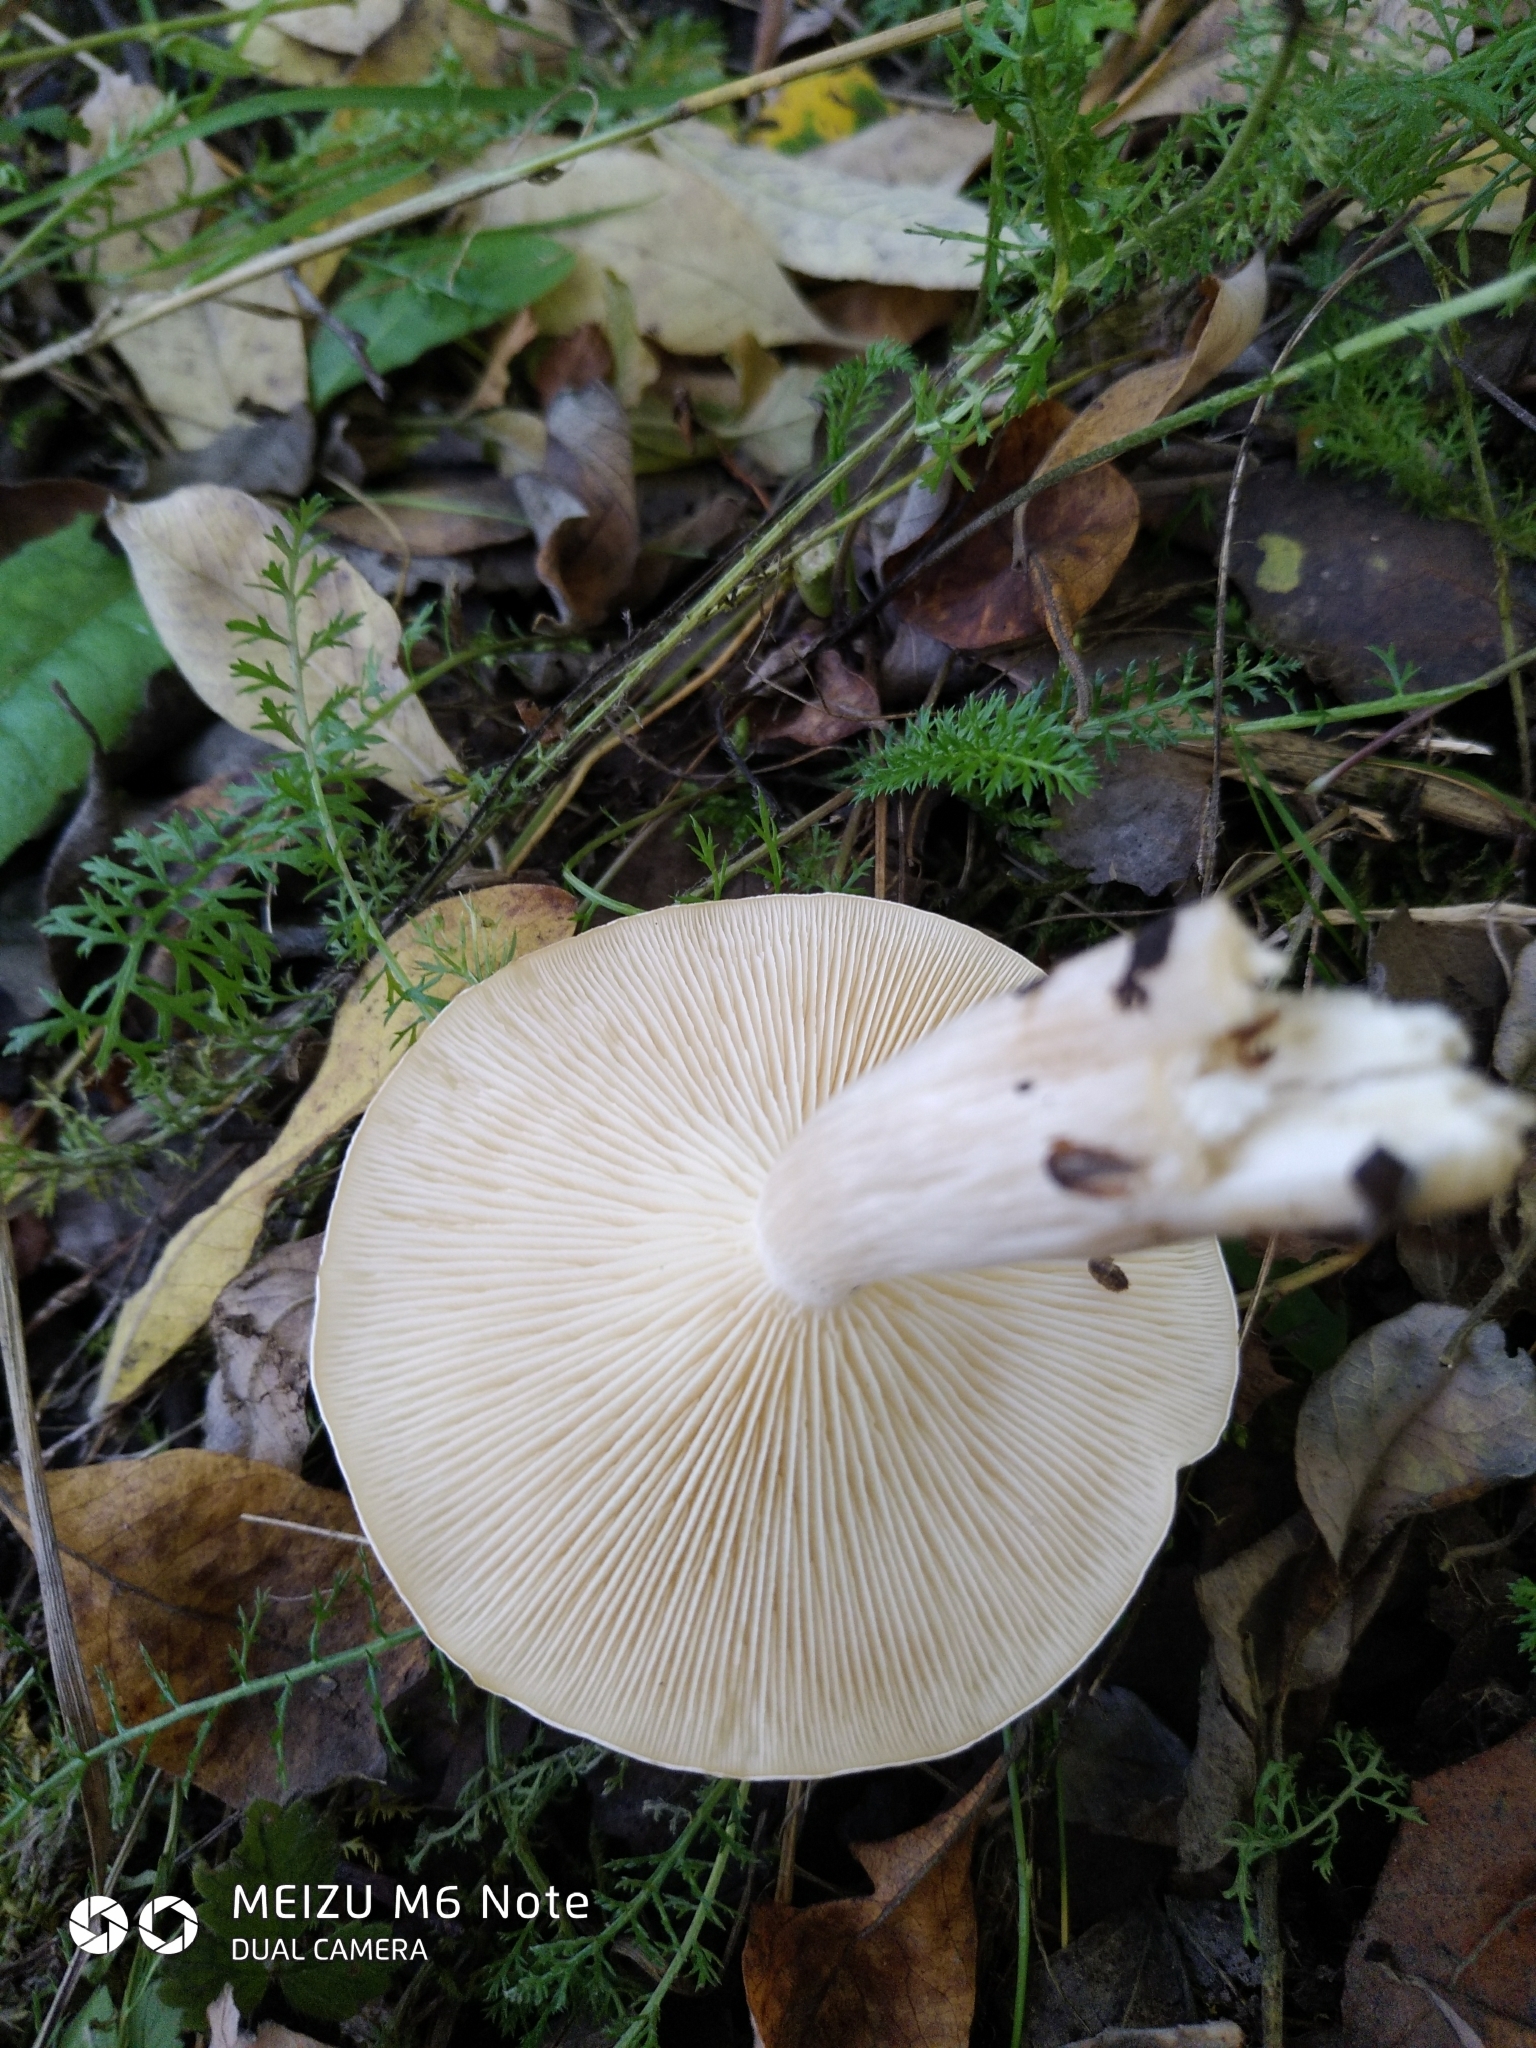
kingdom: Fungi
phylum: Basidiomycota
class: Agaricomycetes
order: Agaricales
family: Agaricaceae
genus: Leucoagaricus
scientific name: Leucoagaricus leucothites
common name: White dapperling
